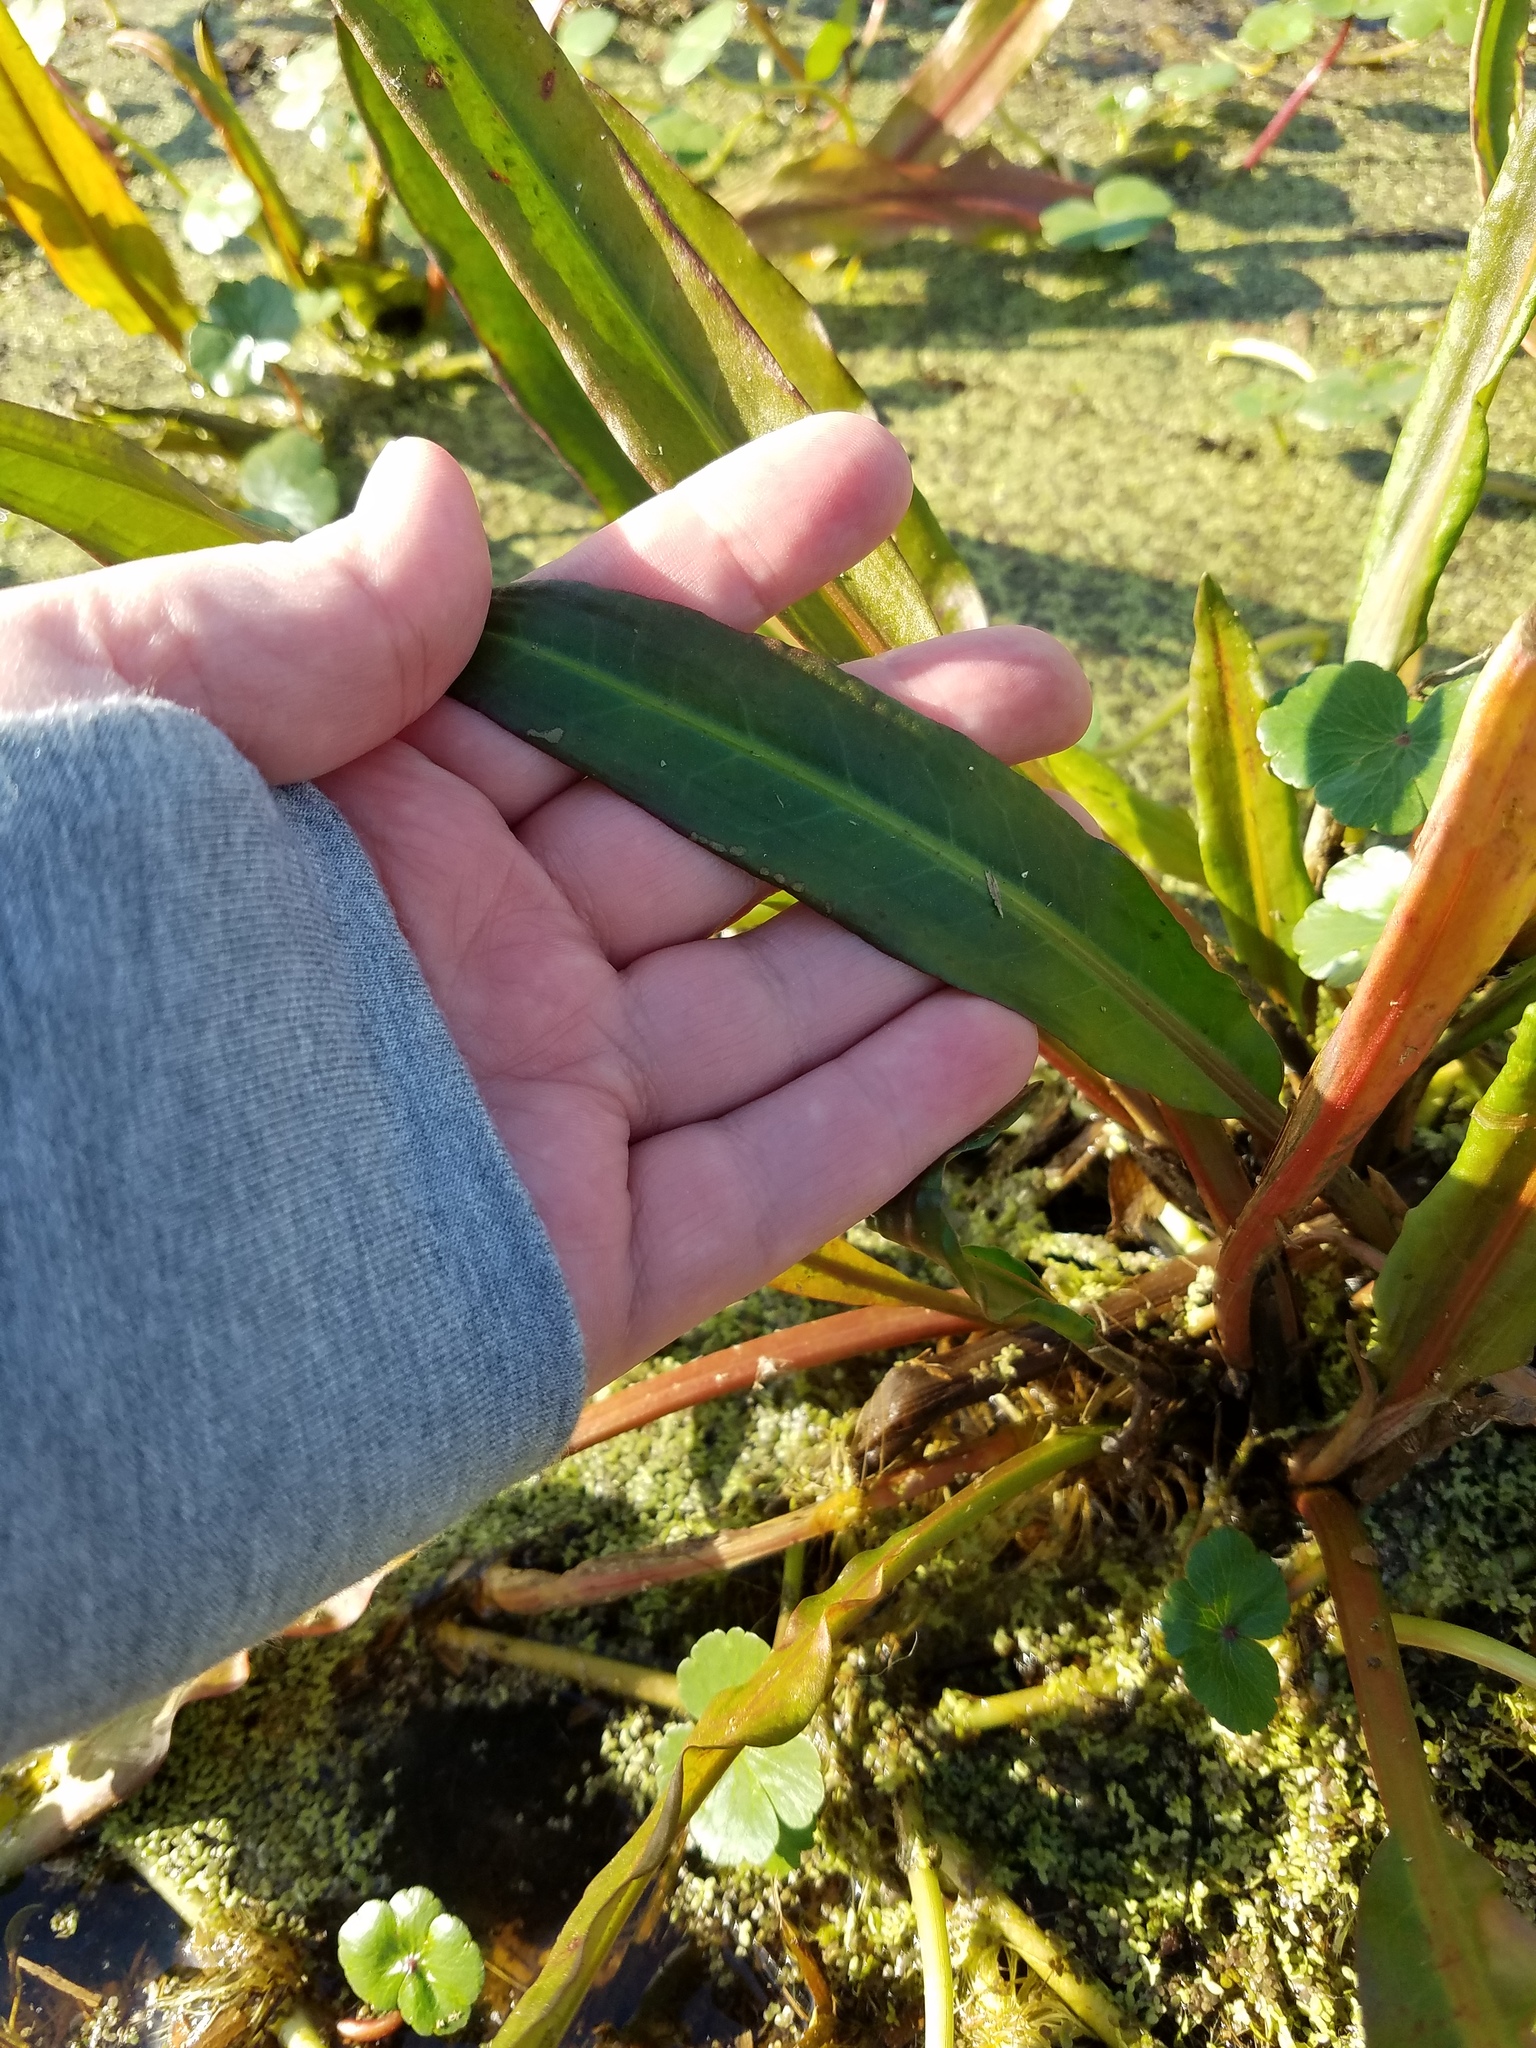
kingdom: Plantae
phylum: Tracheophyta
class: Magnoliopsida
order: Caryophyllales
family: Polygonaceae
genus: Rumex
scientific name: Rumex verticillatus
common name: Swamp dock
